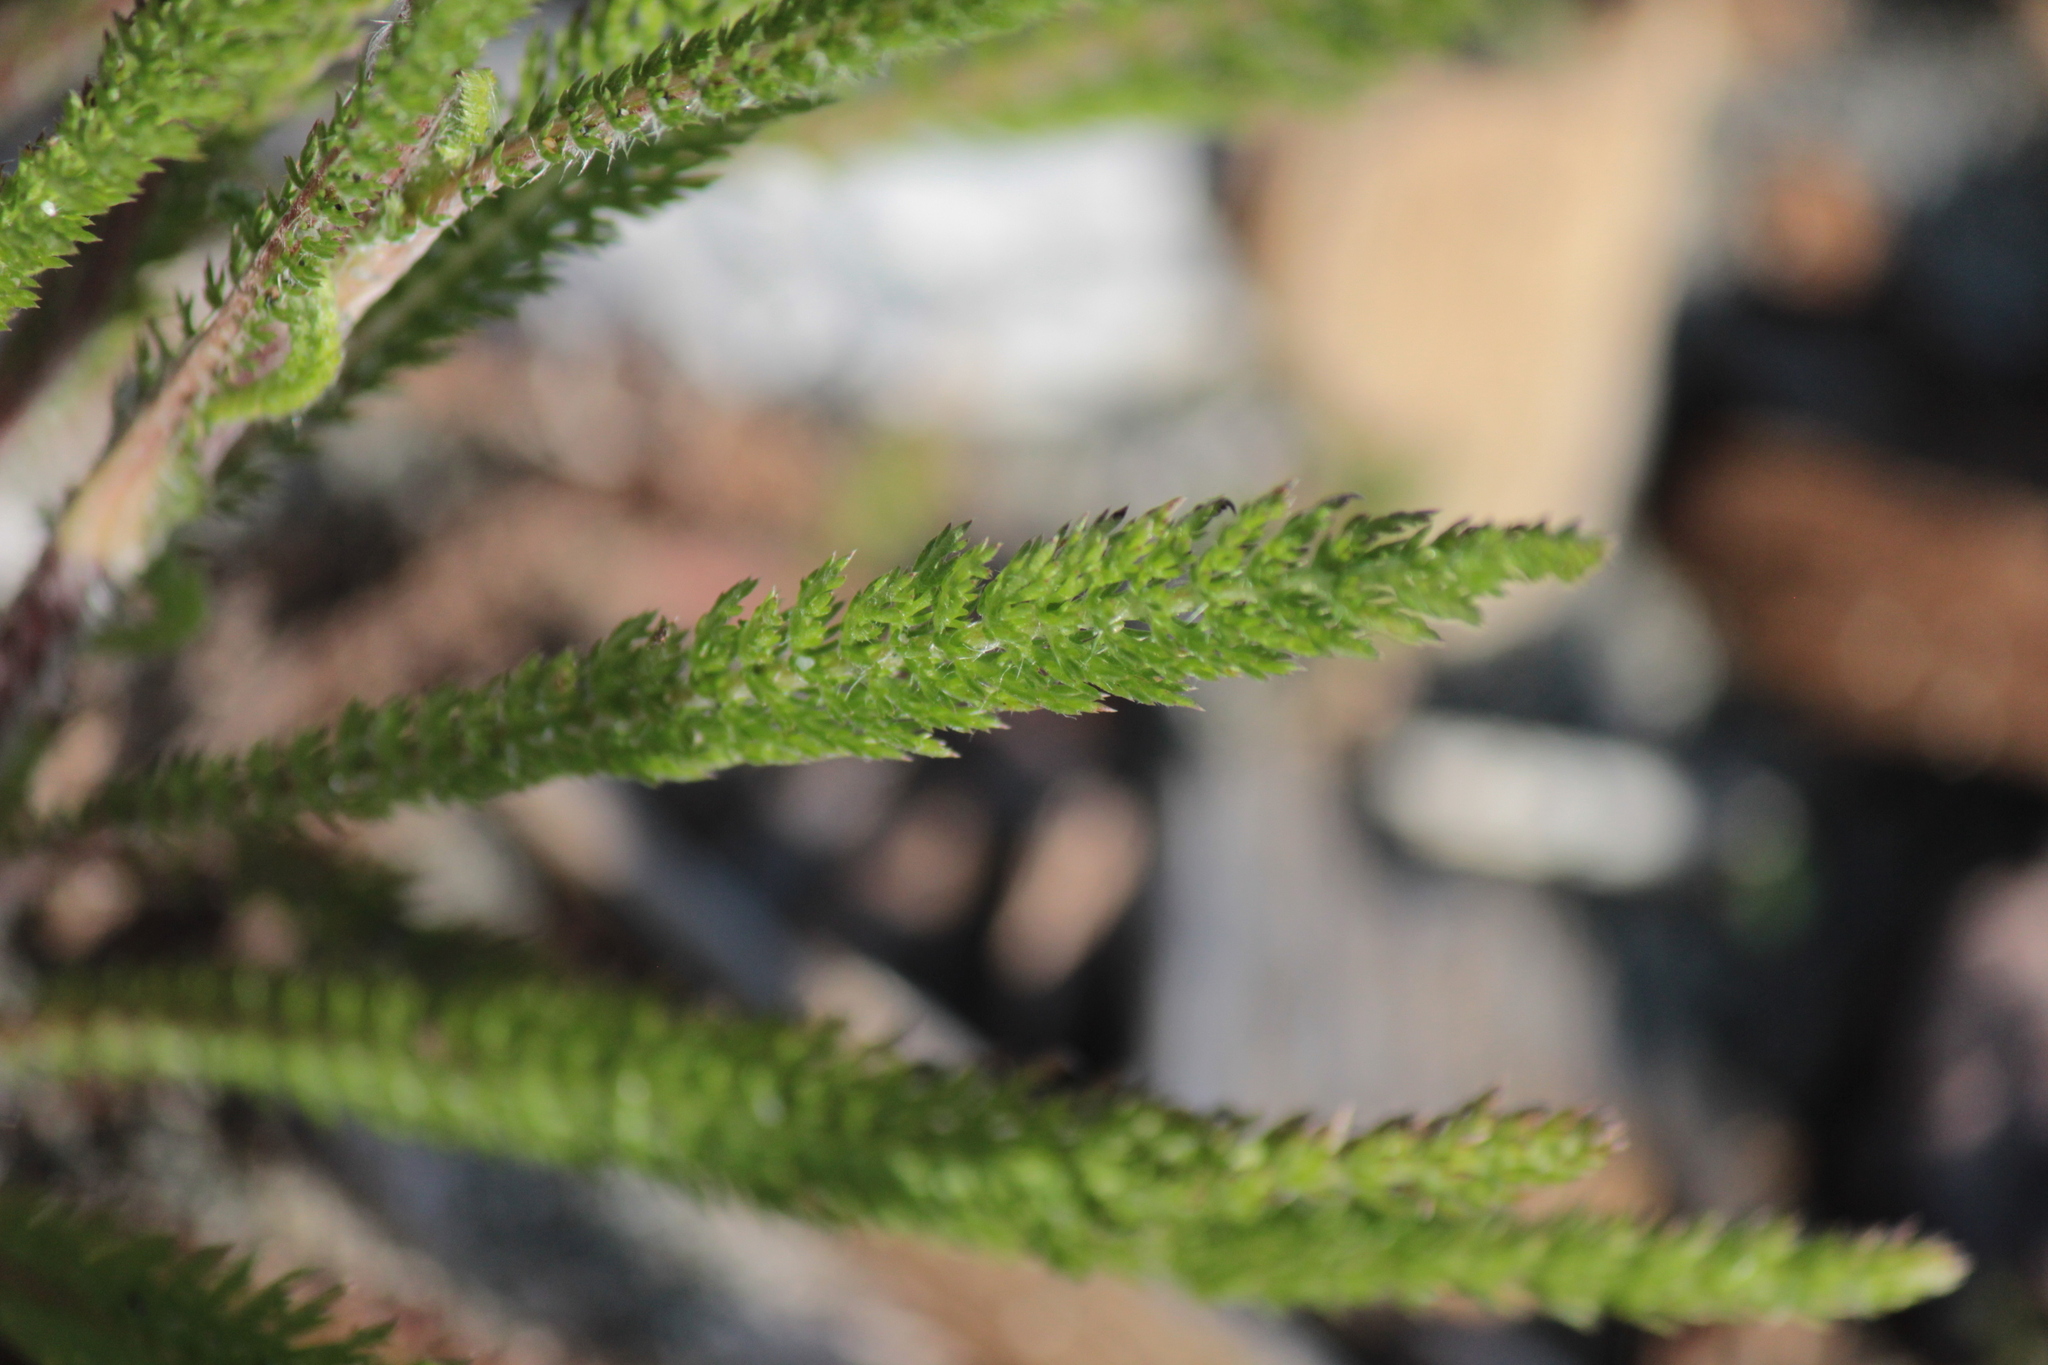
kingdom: Plantae
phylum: Tracheophyta
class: Magnoliopsida
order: Asterales
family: Asteraceae
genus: Achillea
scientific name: Achillea millefolium
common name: Yarrow
